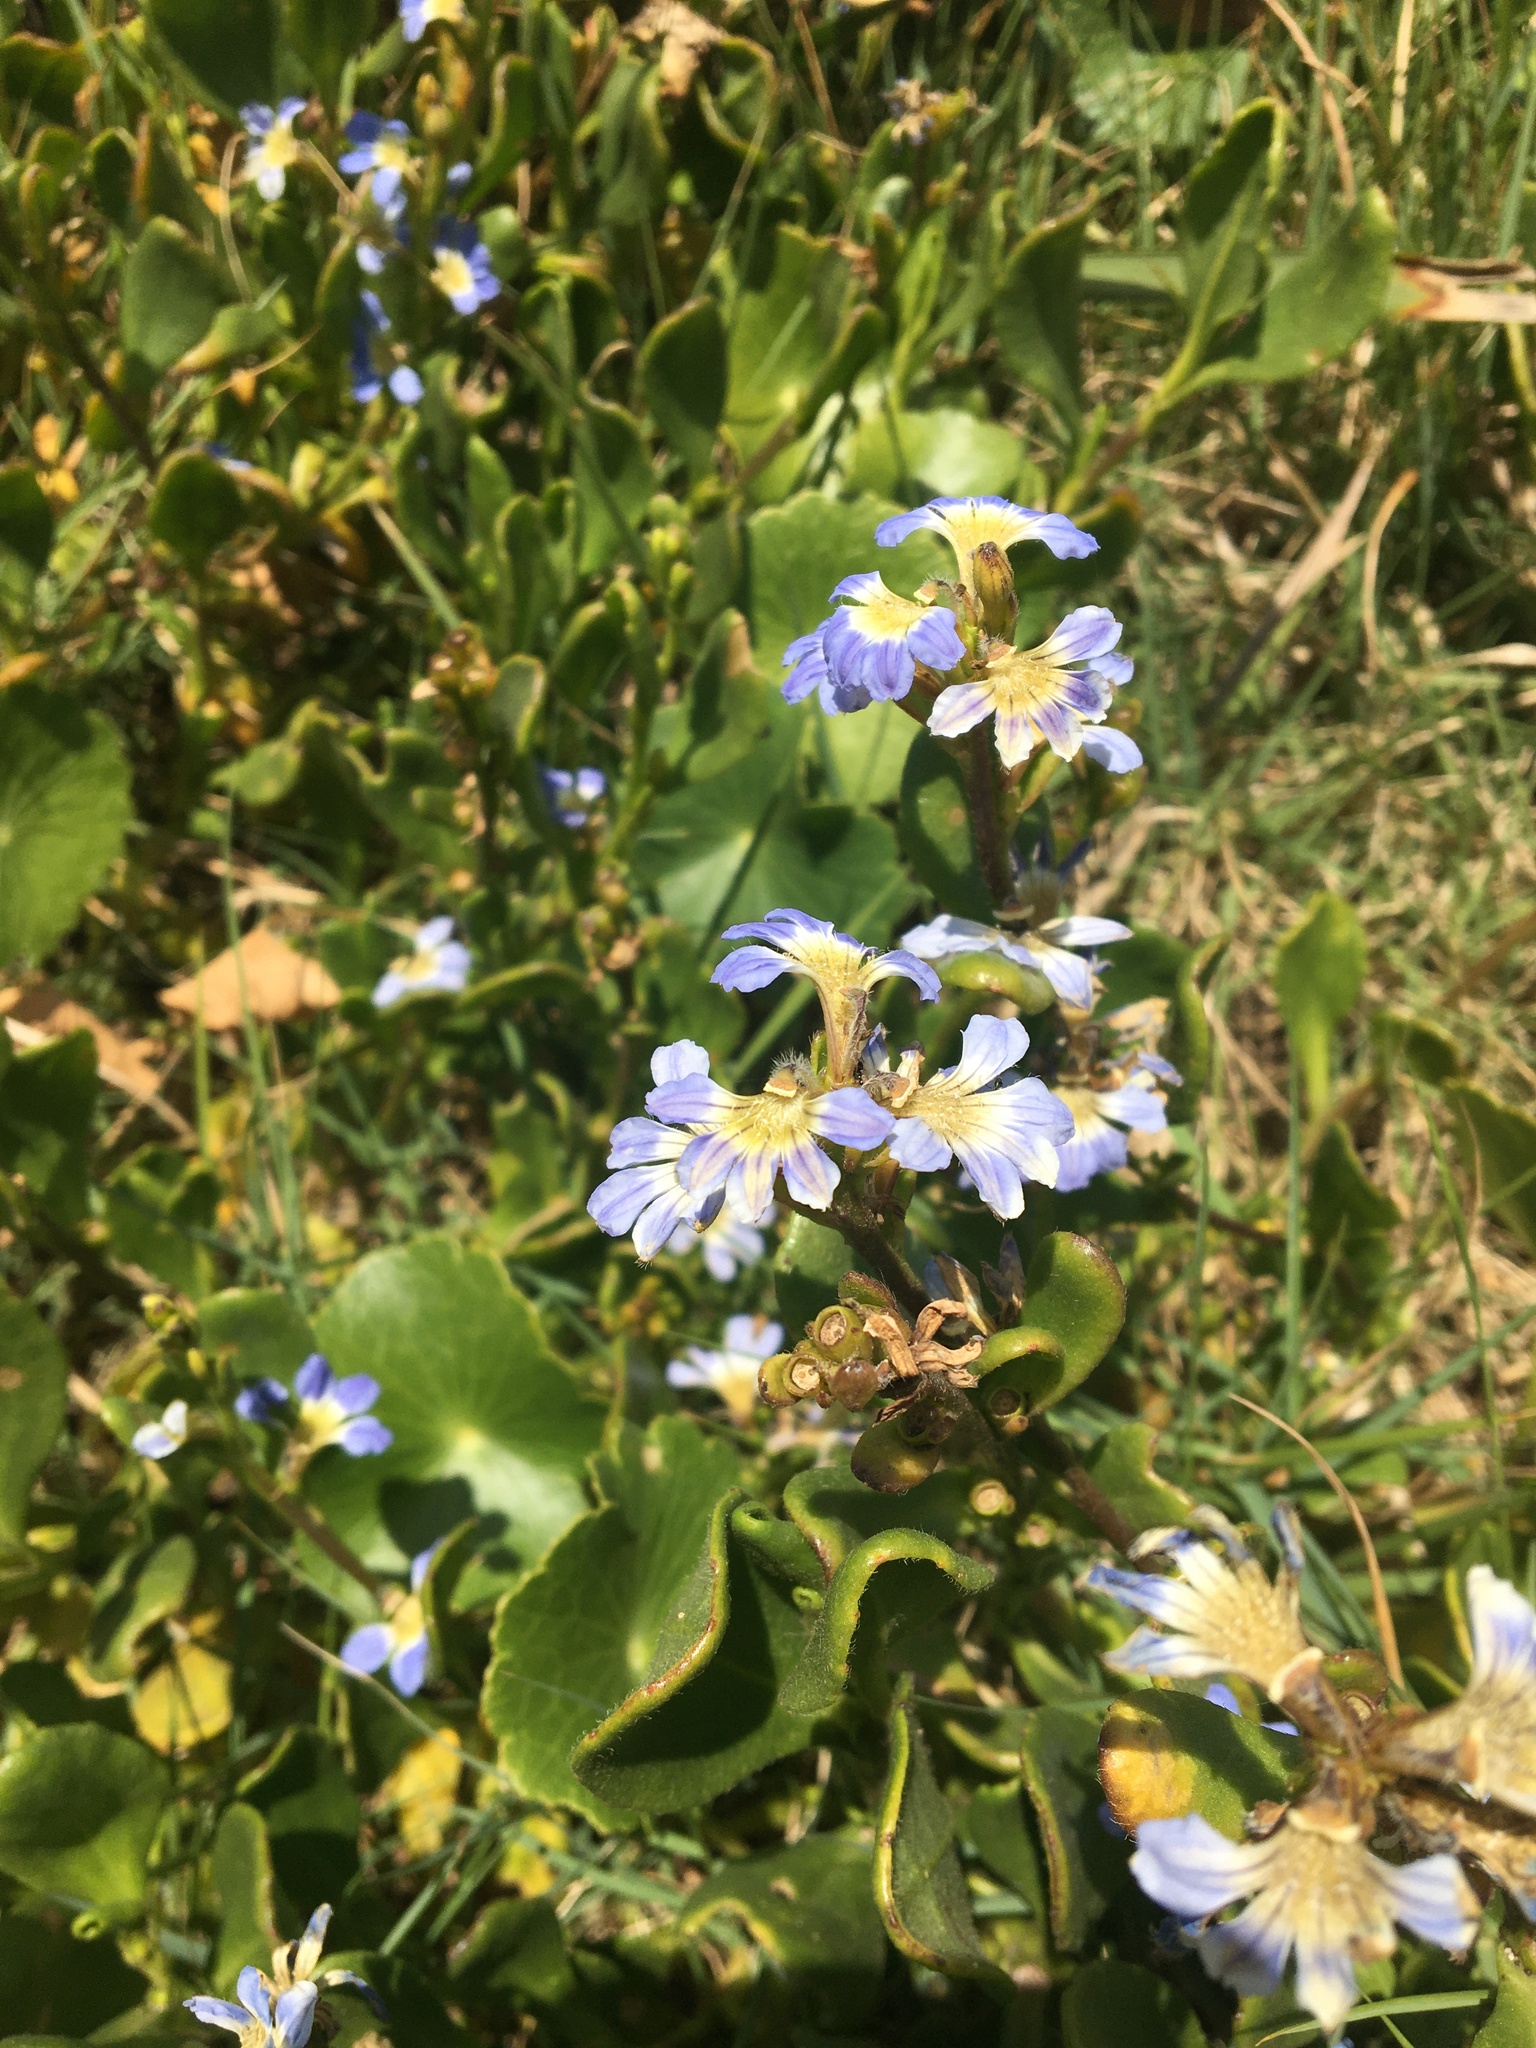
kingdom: Plantae
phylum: Tracheophyta
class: Magnoliopsida
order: Asterales
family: Goodeniaceae
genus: Scaevola
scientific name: Scaevola calendulacea
